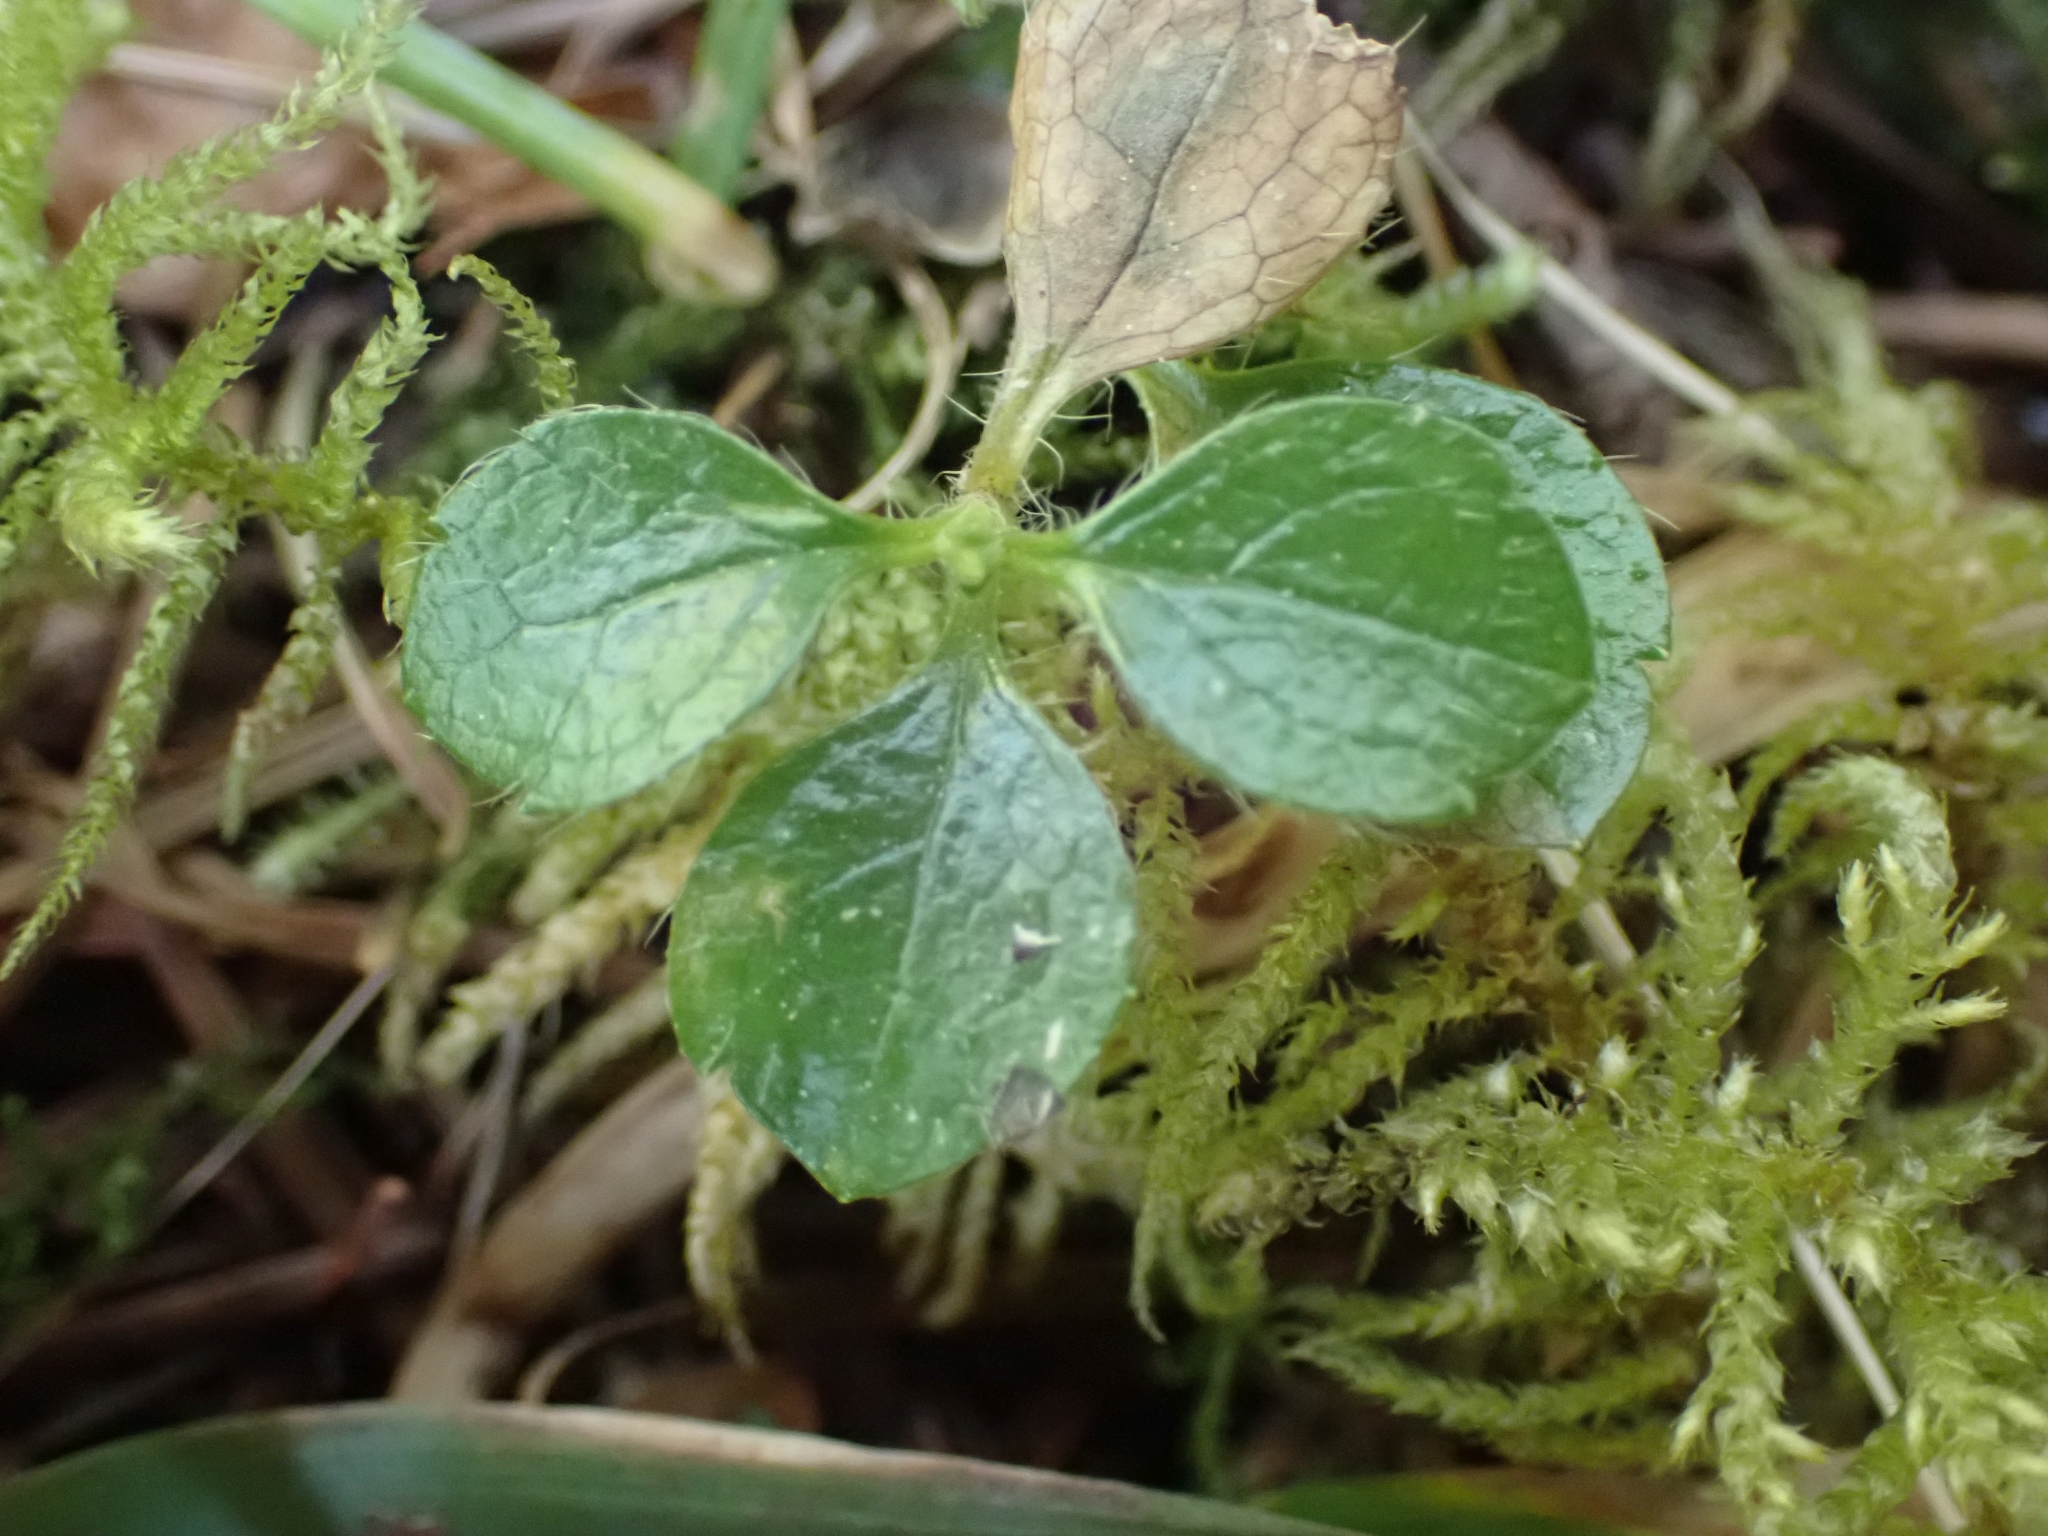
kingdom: Plantae
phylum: Tracheophyta
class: Magnoliopsida
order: Dipsacales
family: Caprifoliaceae
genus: Linnaea
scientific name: Linnaea borealis
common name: Twinflower
